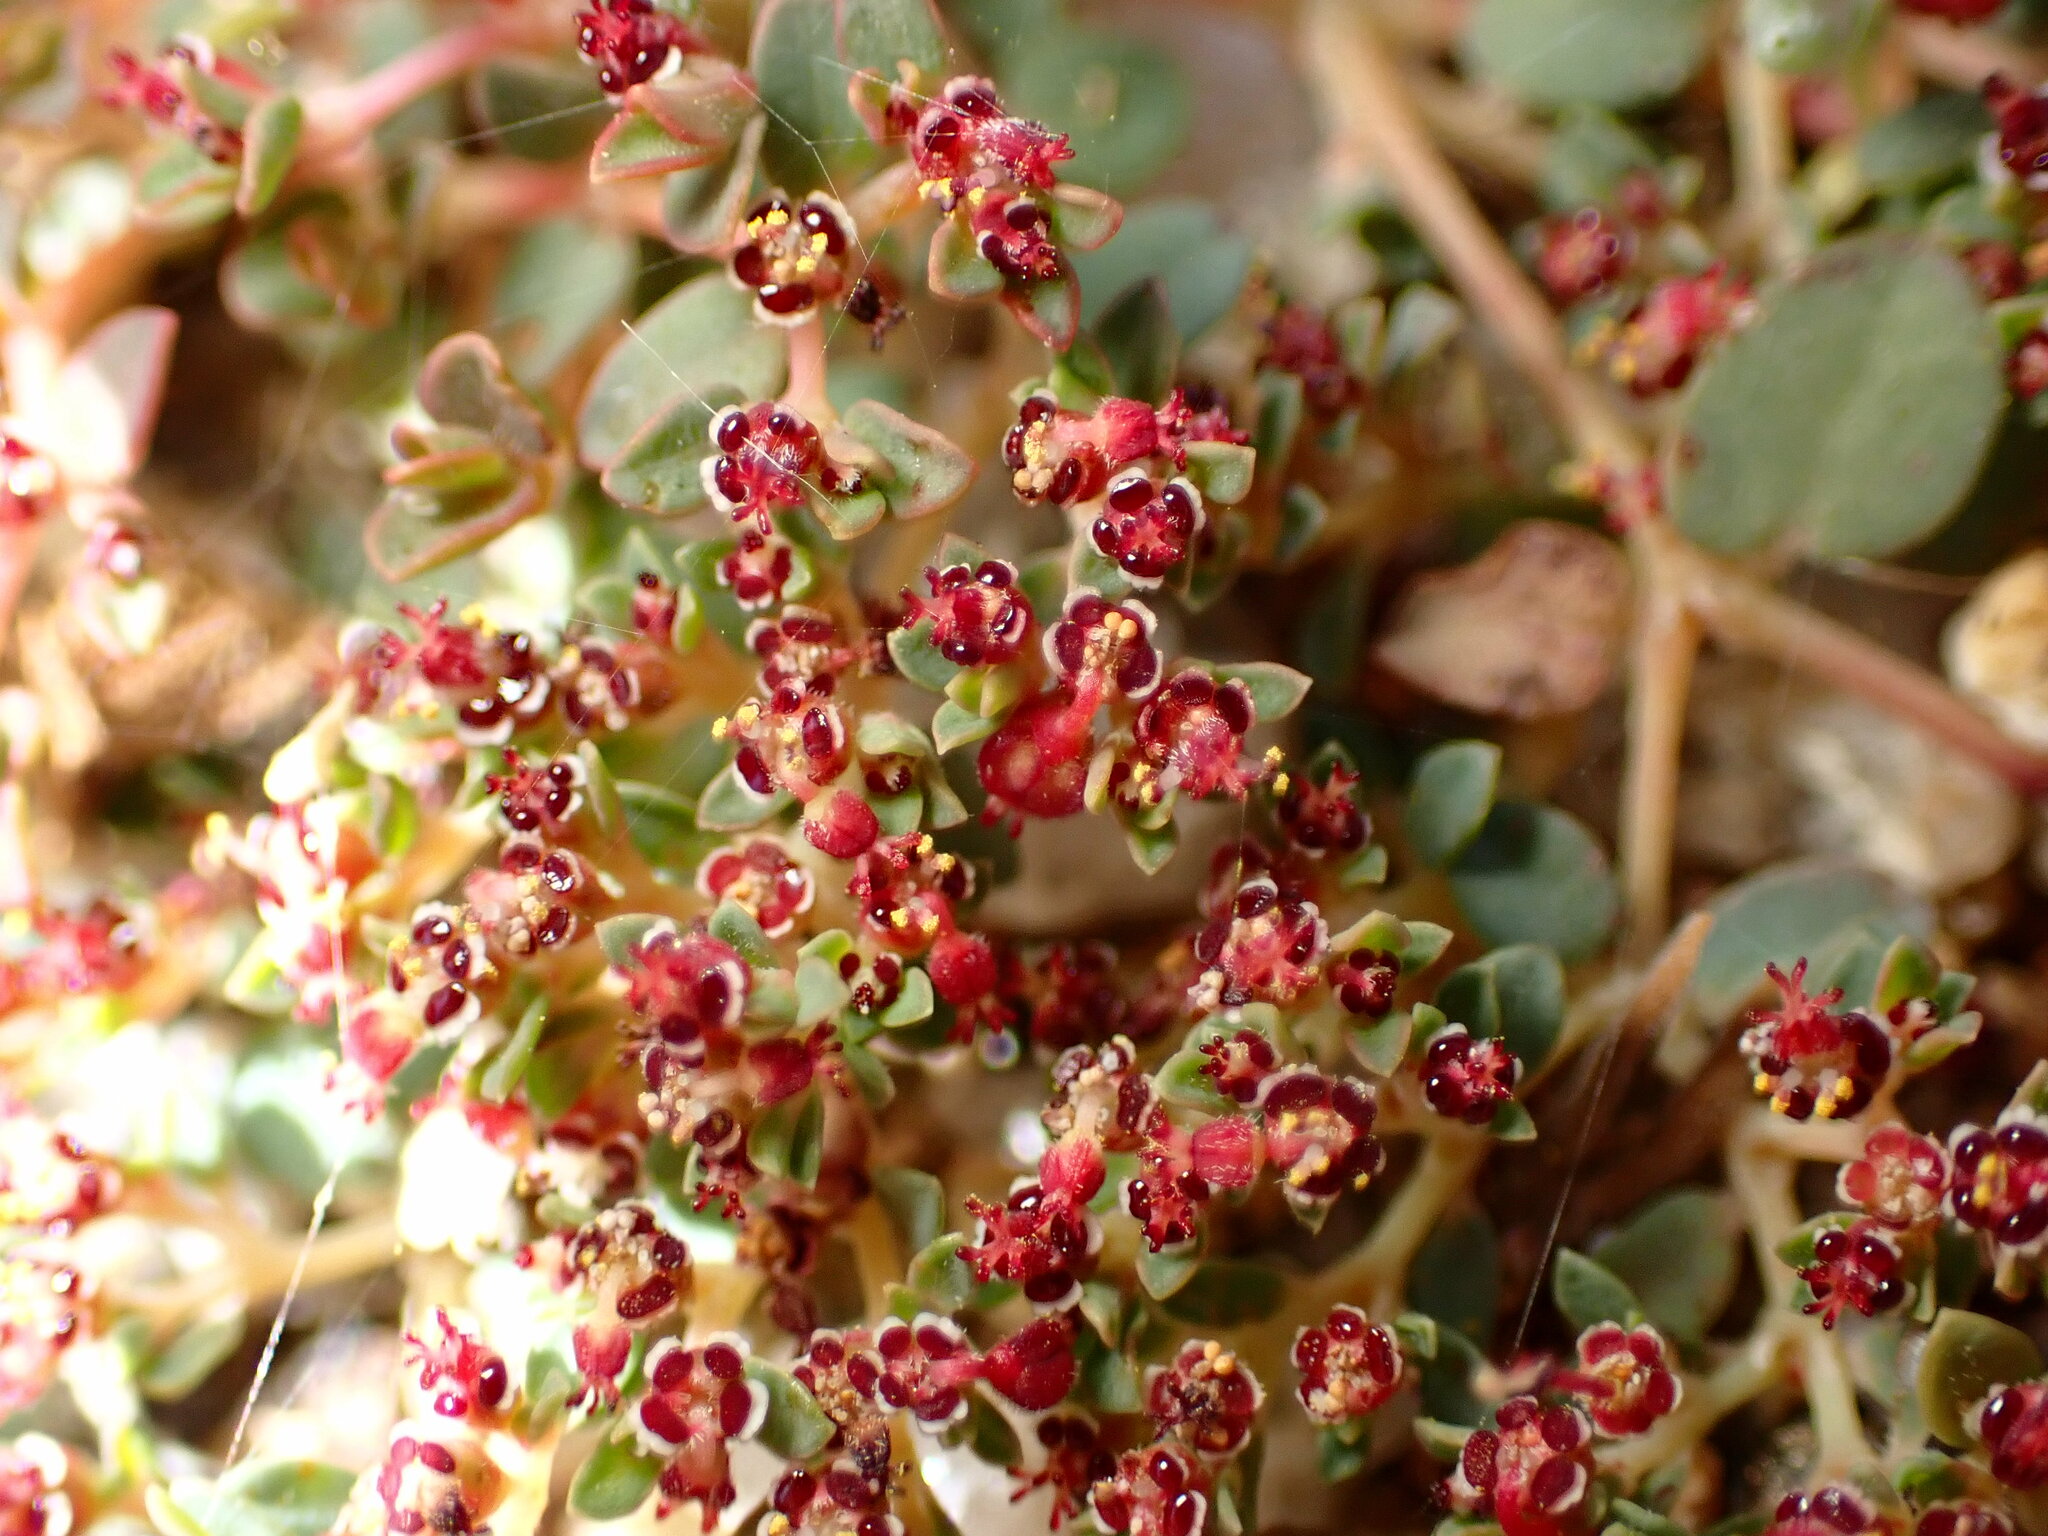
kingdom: Plantae
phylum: Tracheophyta
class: Magnoliopsida
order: Malpighiales
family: Euphorbiaceae
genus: Euphorbia
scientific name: Euphorbia polycarpa
